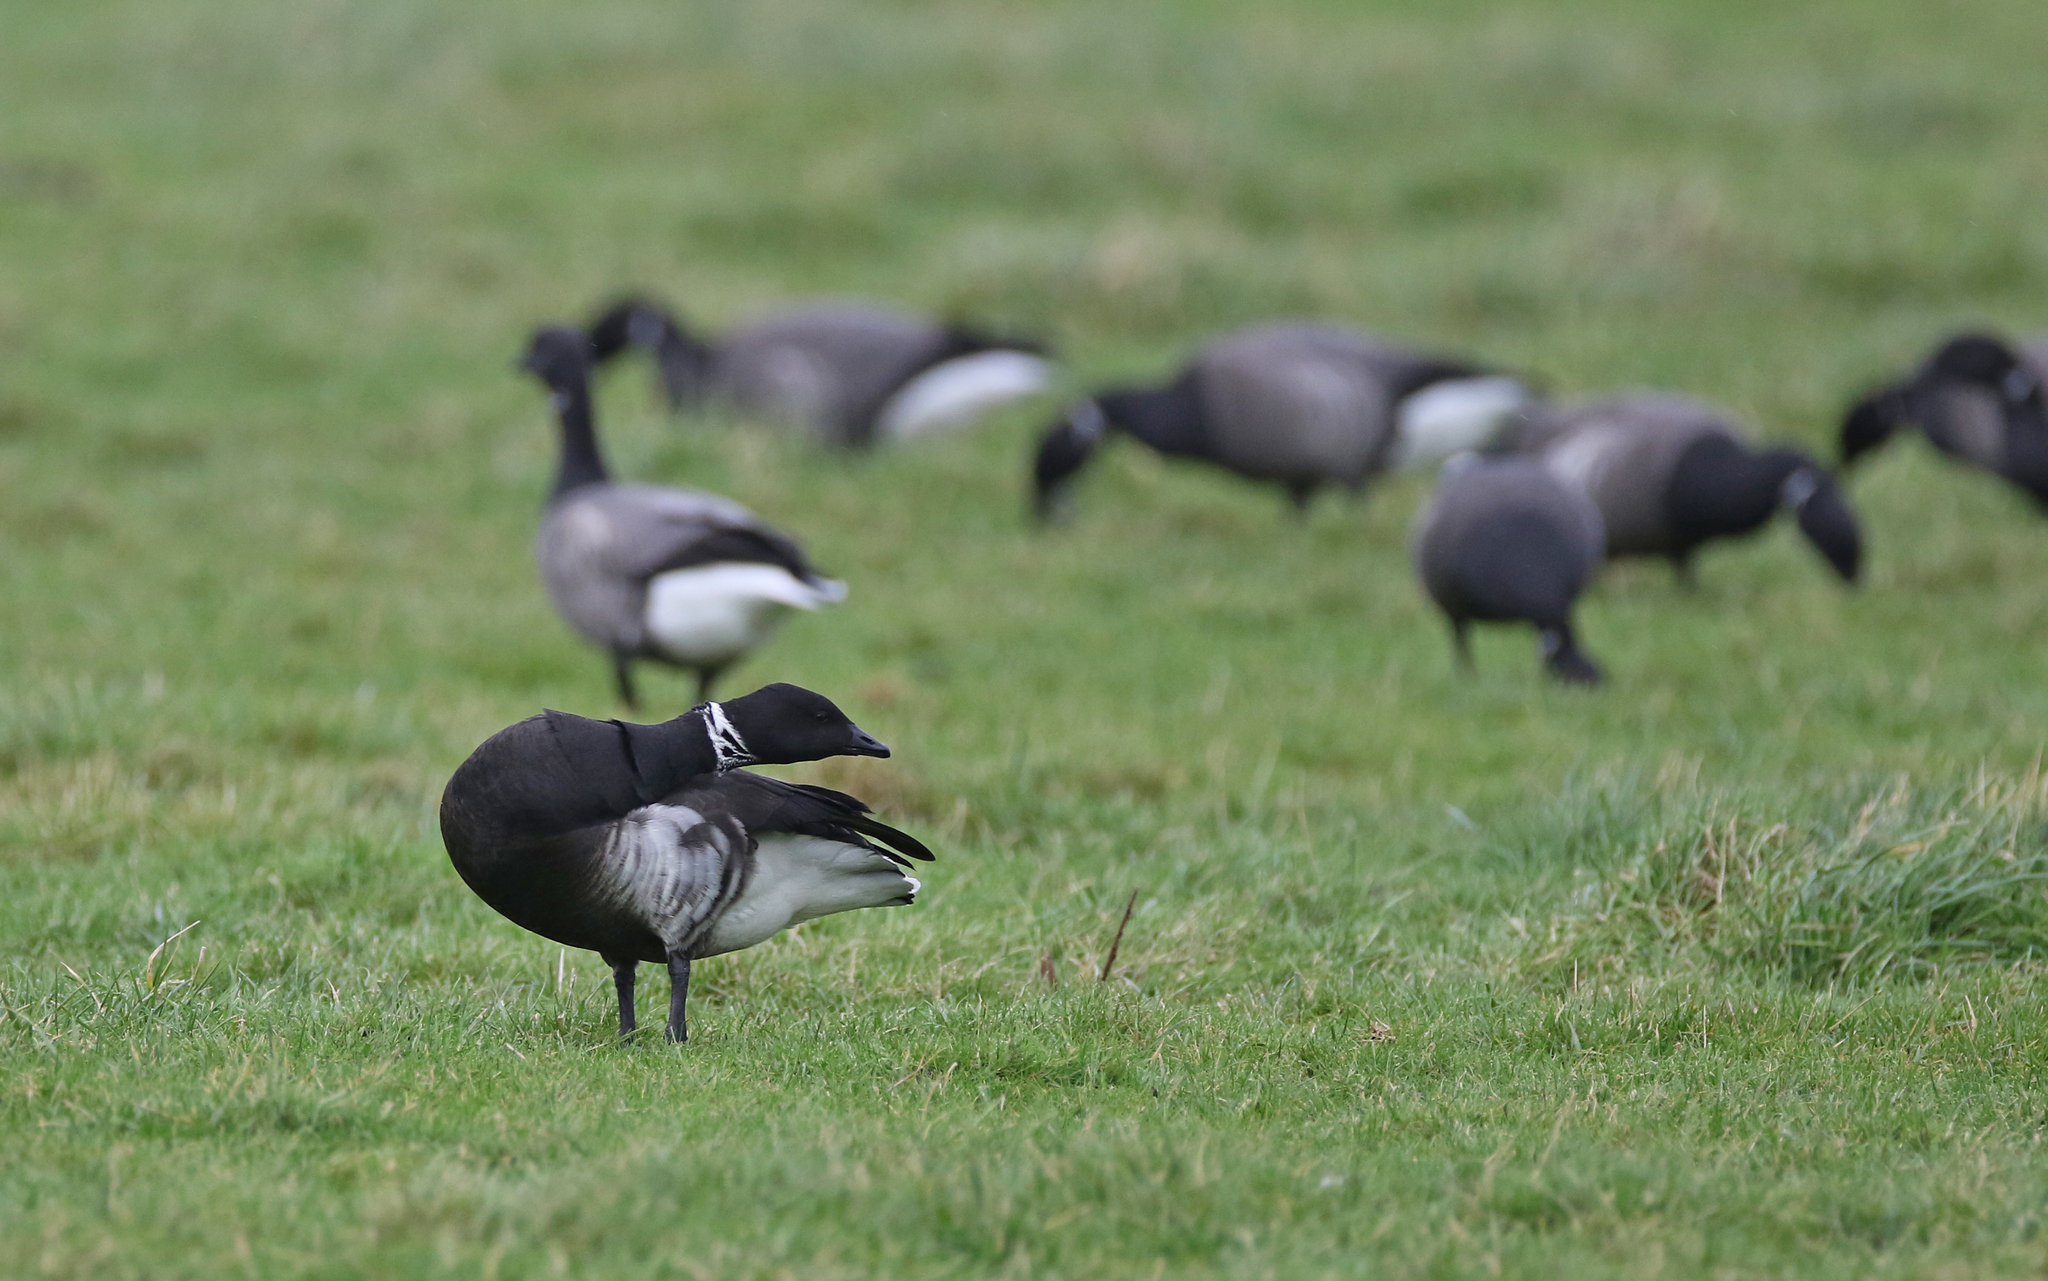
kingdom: Animalia
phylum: Chordata
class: Aves
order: Anseriformes
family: Anatidae
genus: Branta
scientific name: Branta bernicla
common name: Brant goose
